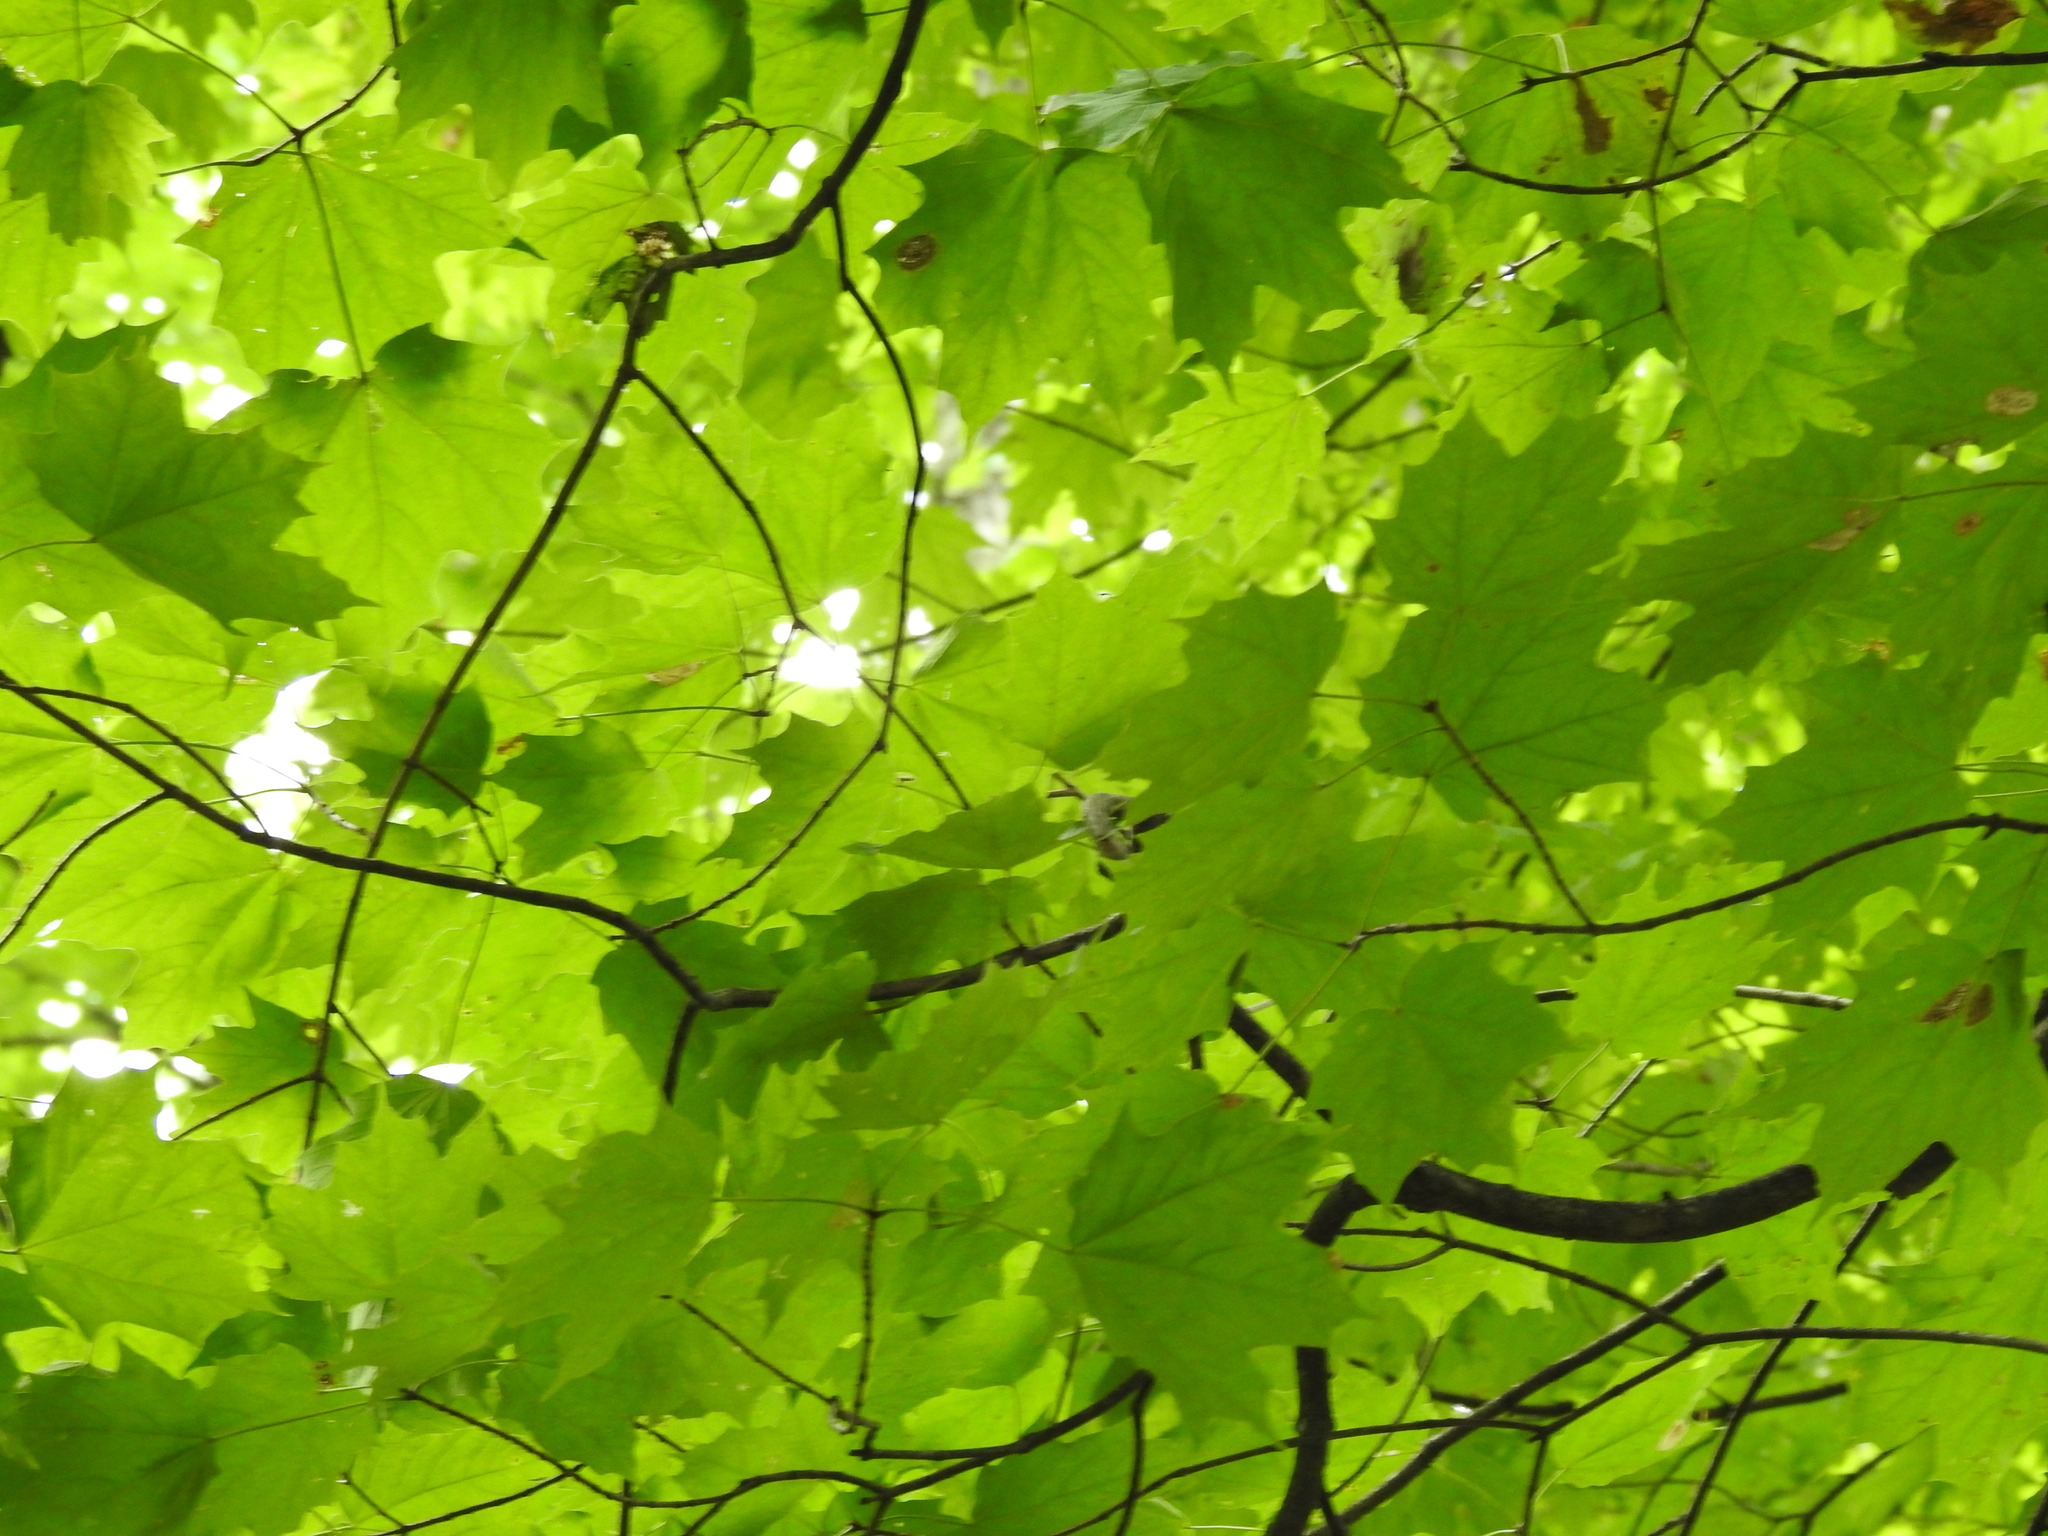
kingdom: Plantae
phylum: Tracheophyta
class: Magnoliopsida
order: Sapindales
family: Sapindaceae
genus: Acer
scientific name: Acer platanoides
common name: Norway maple
